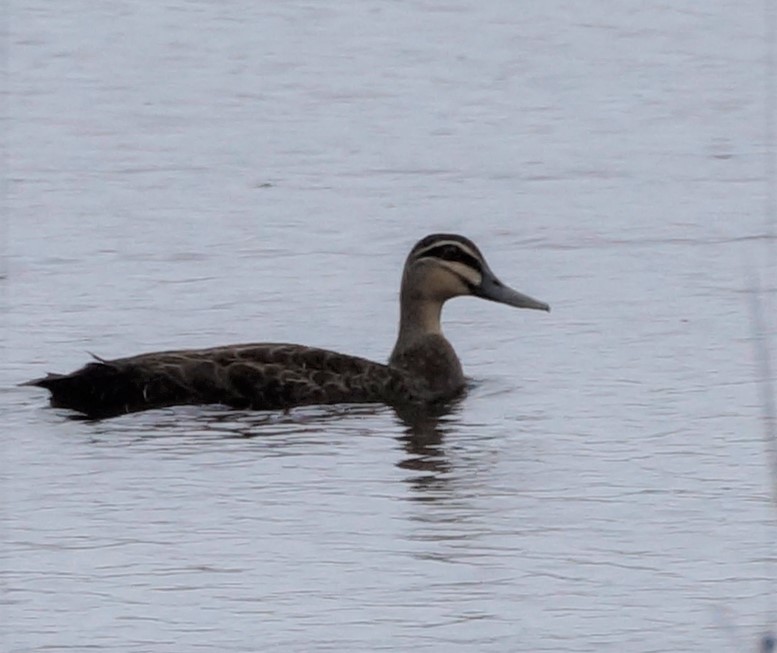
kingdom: Animalia
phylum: Chordata
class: Aves
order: Anseriformes
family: Anatidae
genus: Anas
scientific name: Anas superciliosa
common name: Pacific black duck
